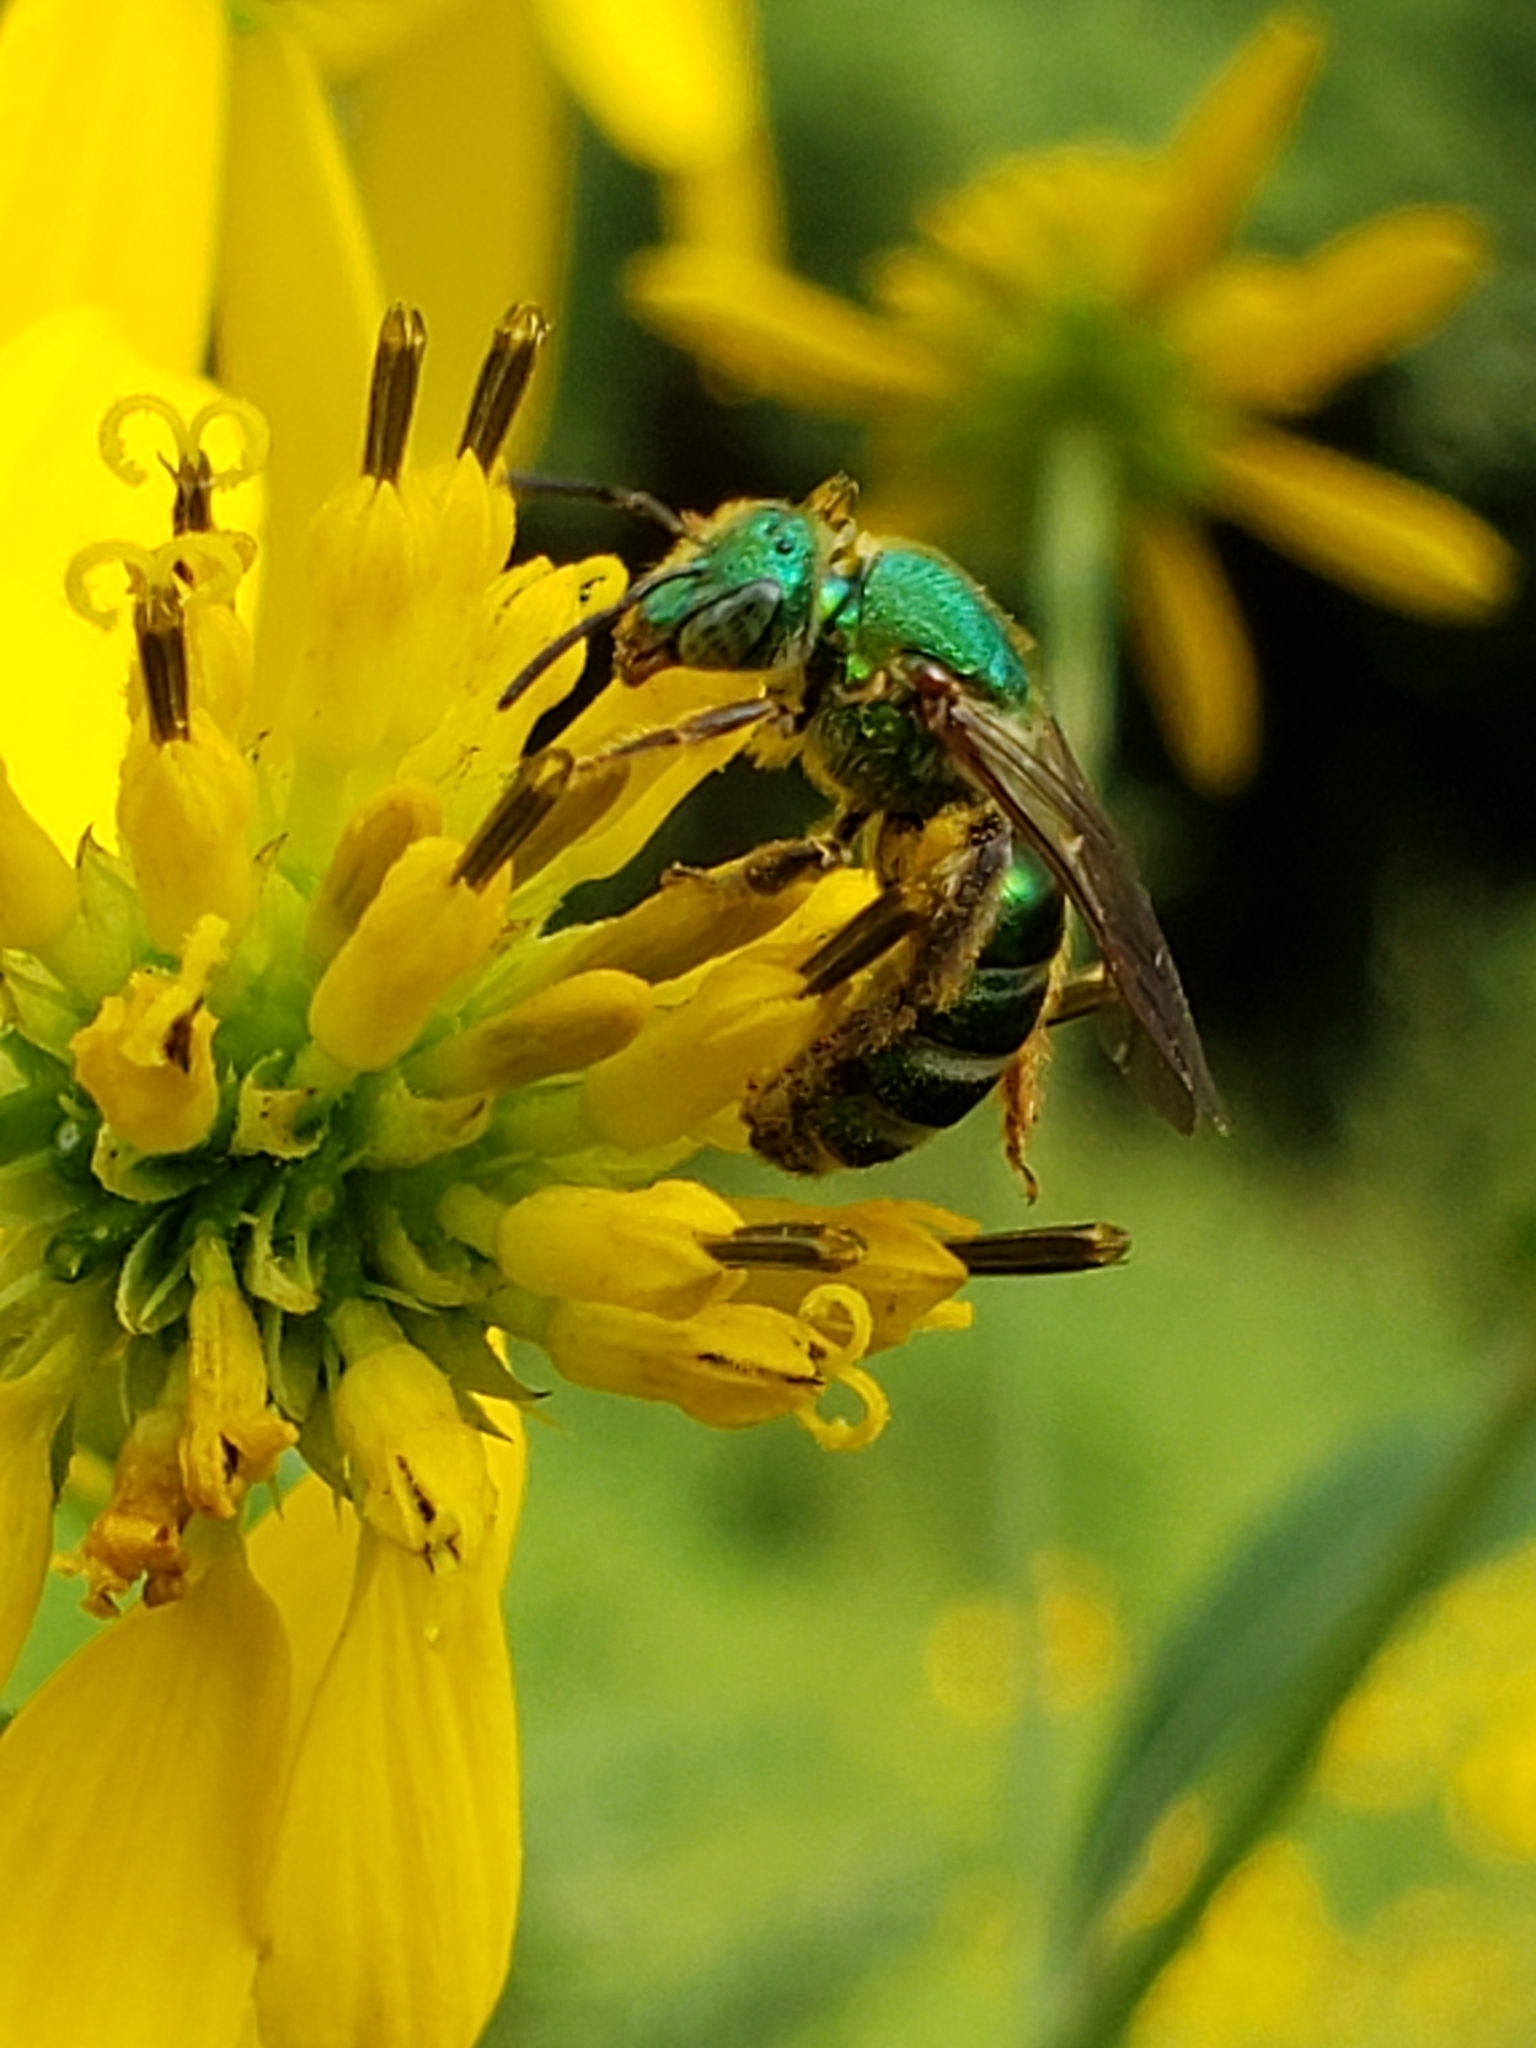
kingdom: Animalia
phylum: Arthropoda
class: Insecta
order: Hymenoptera
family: Halictidae
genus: Agapostemon
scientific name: Agapostemon splendens
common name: Brown-winged striped sweat bee
